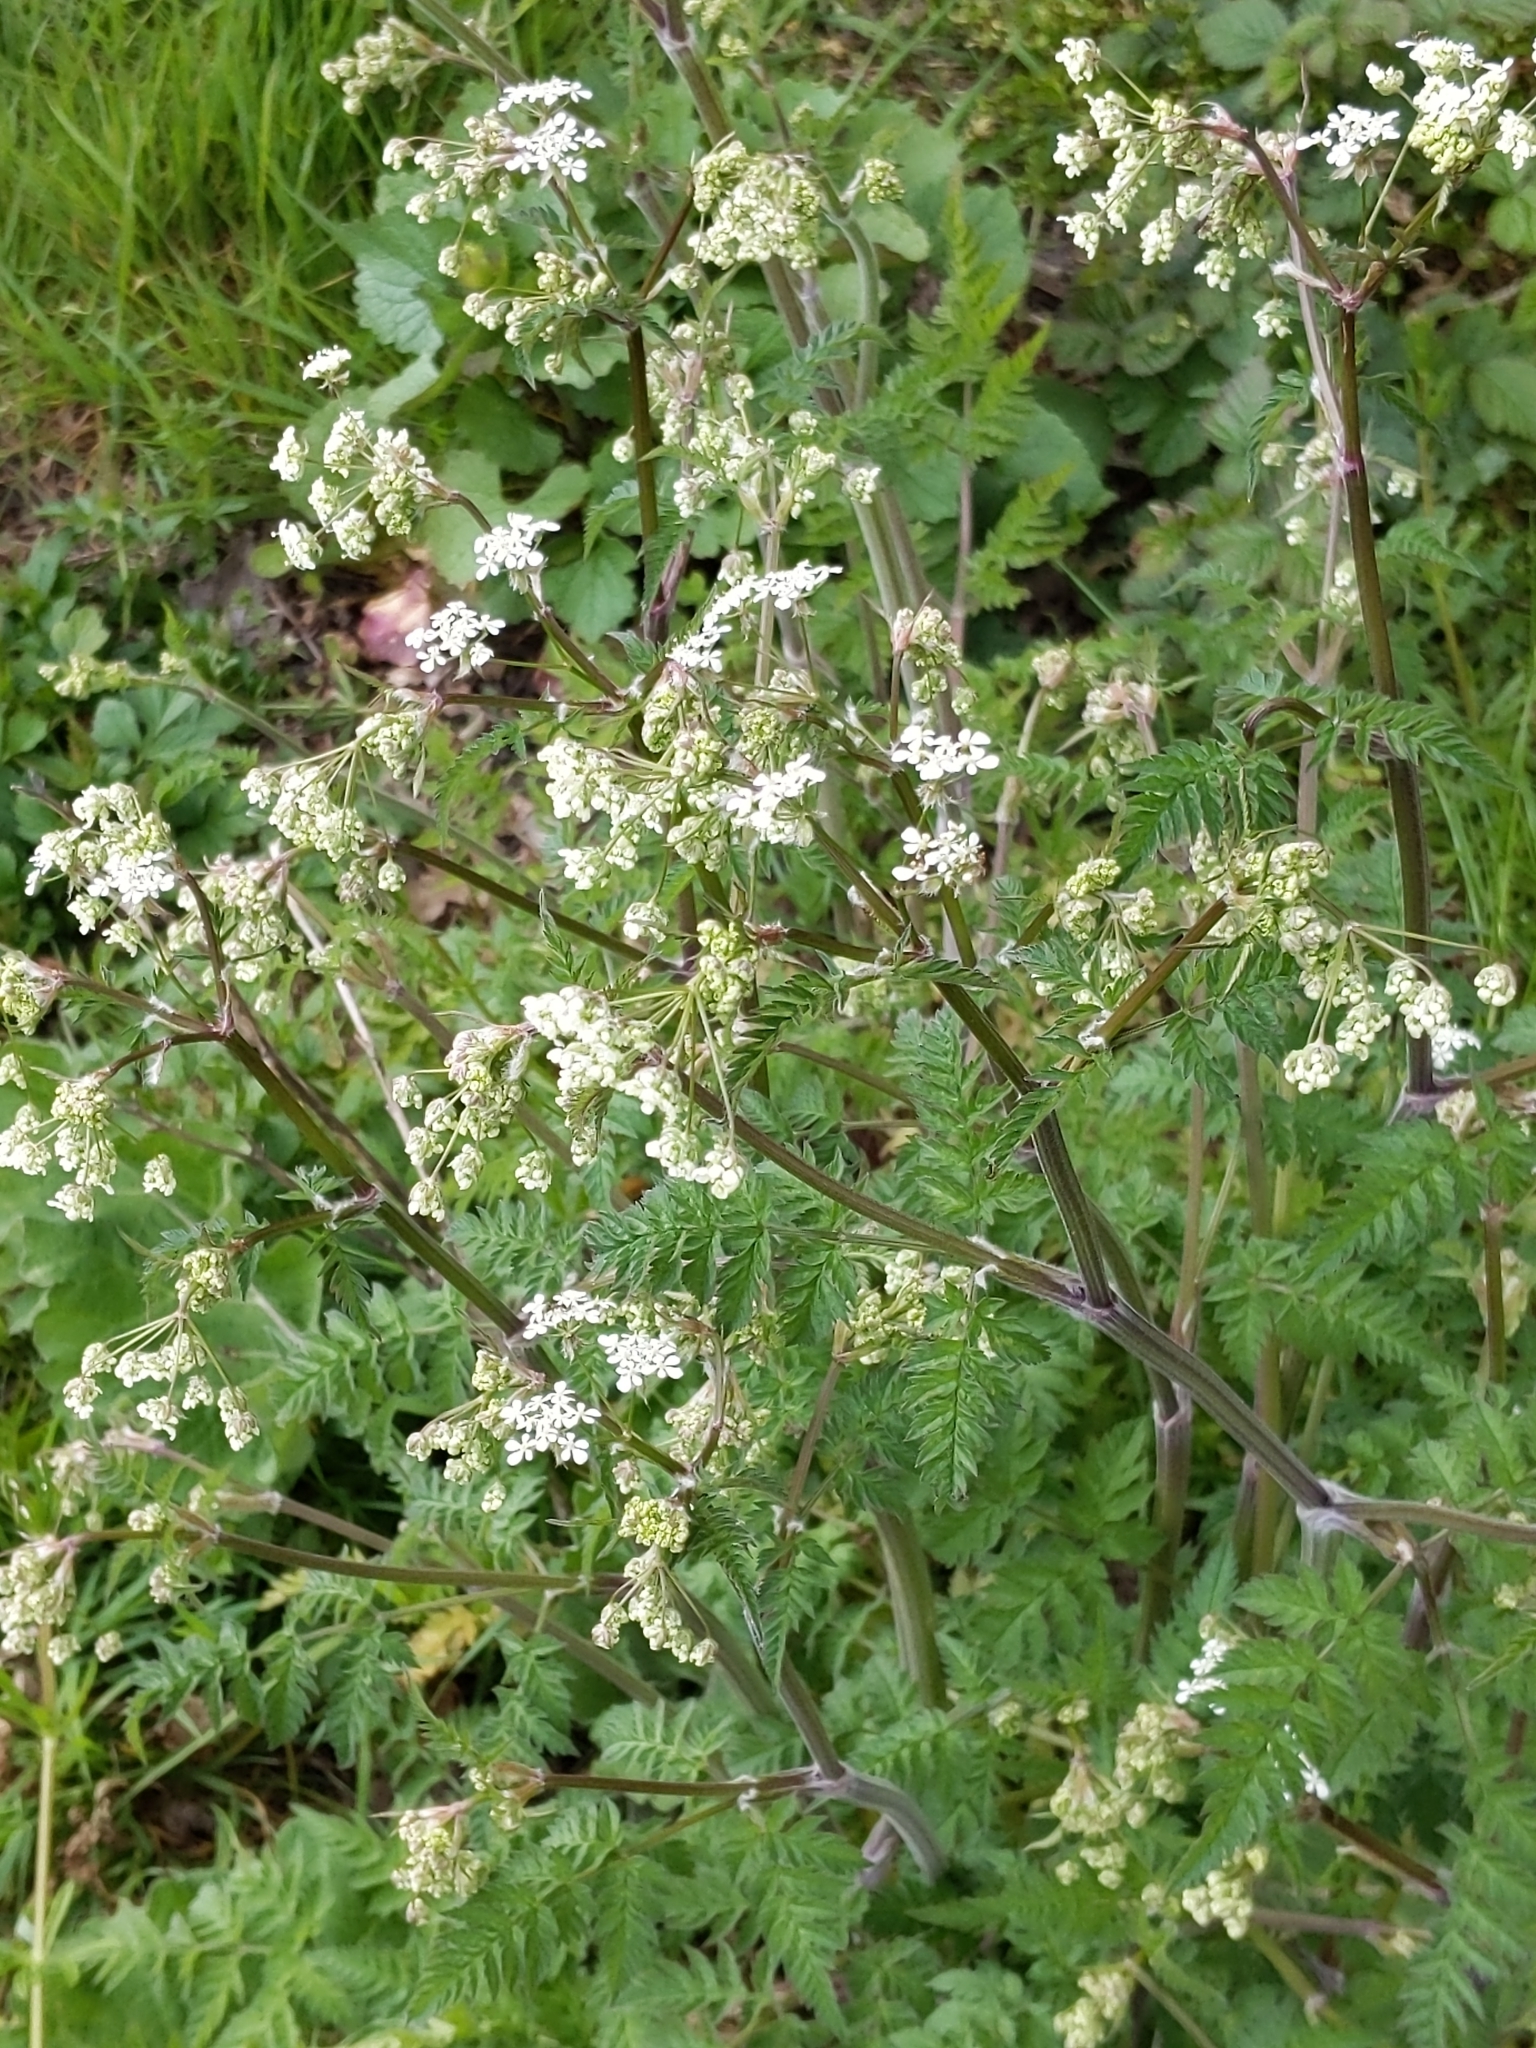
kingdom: Plantae
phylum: Tracheophyta
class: Magnoliopsida
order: Apiales
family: Apiaceae
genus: Anthriscus
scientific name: Anthriscus sylvestris
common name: Cow parsley
